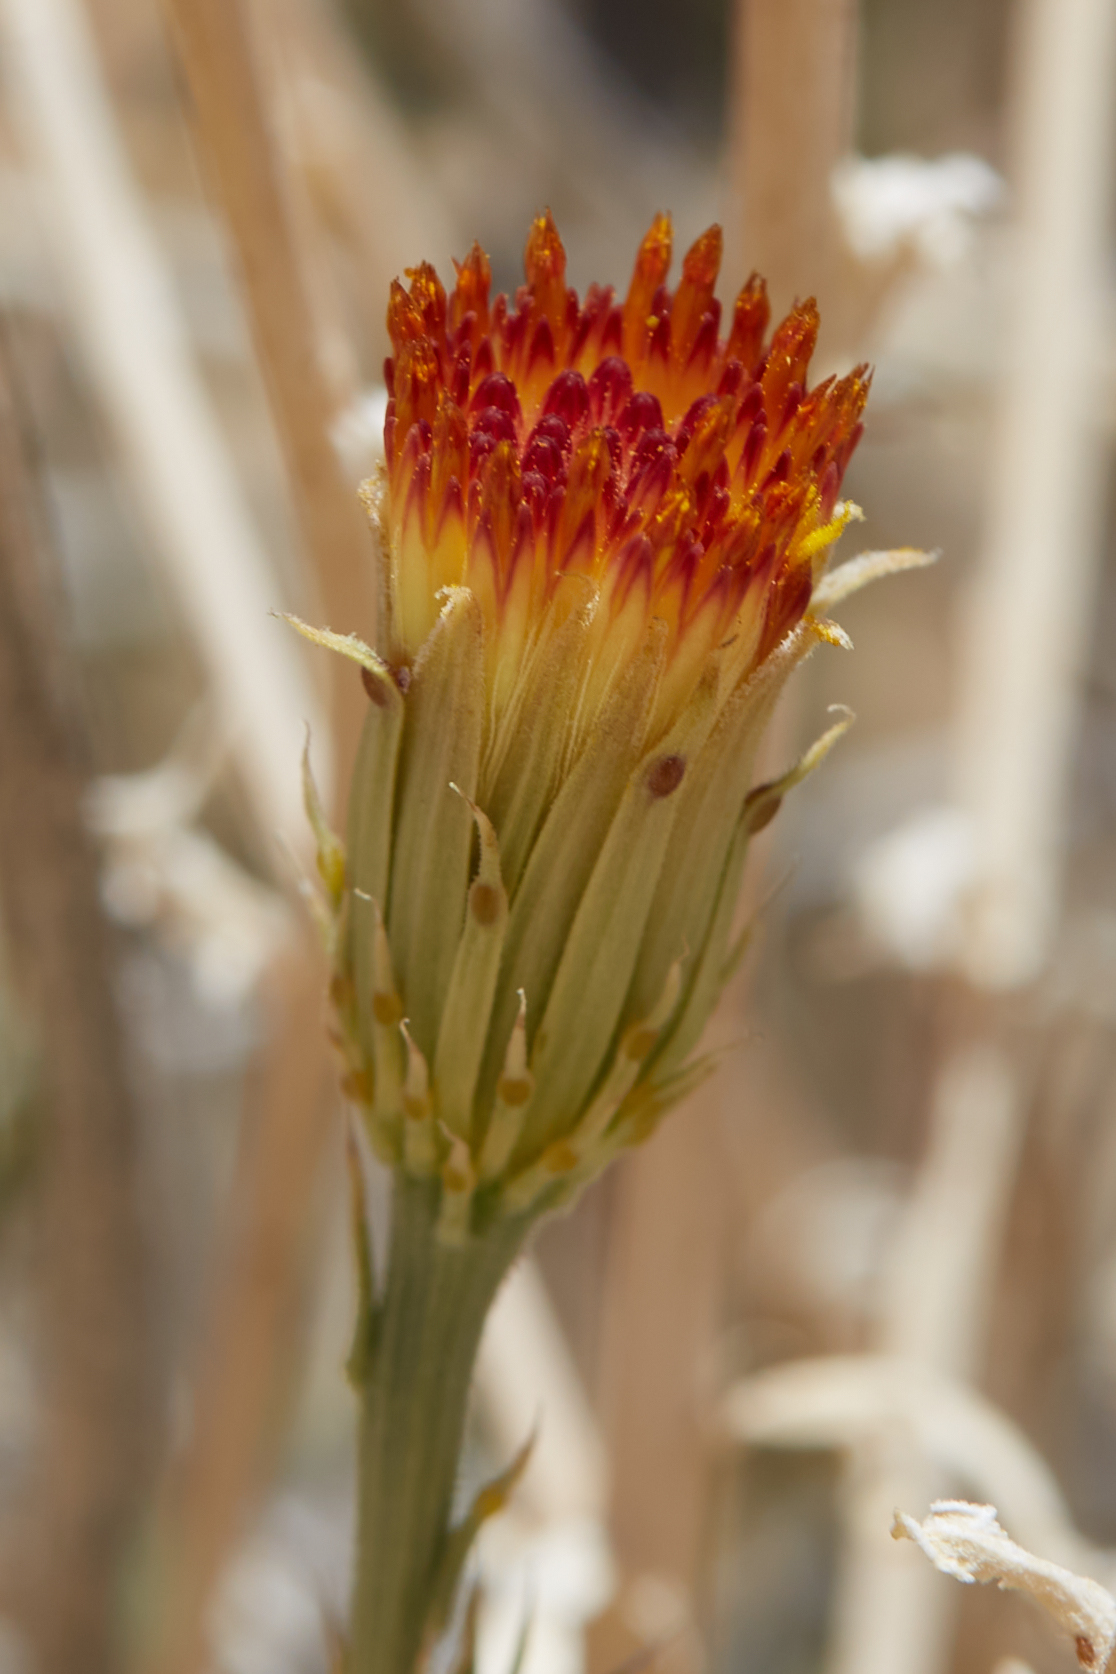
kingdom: Plantae
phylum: Tracheophyta
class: Magnoliopsida
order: Asterales
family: Asteraceae
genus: Adenophyllum
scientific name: Adenophyllum cooperi
